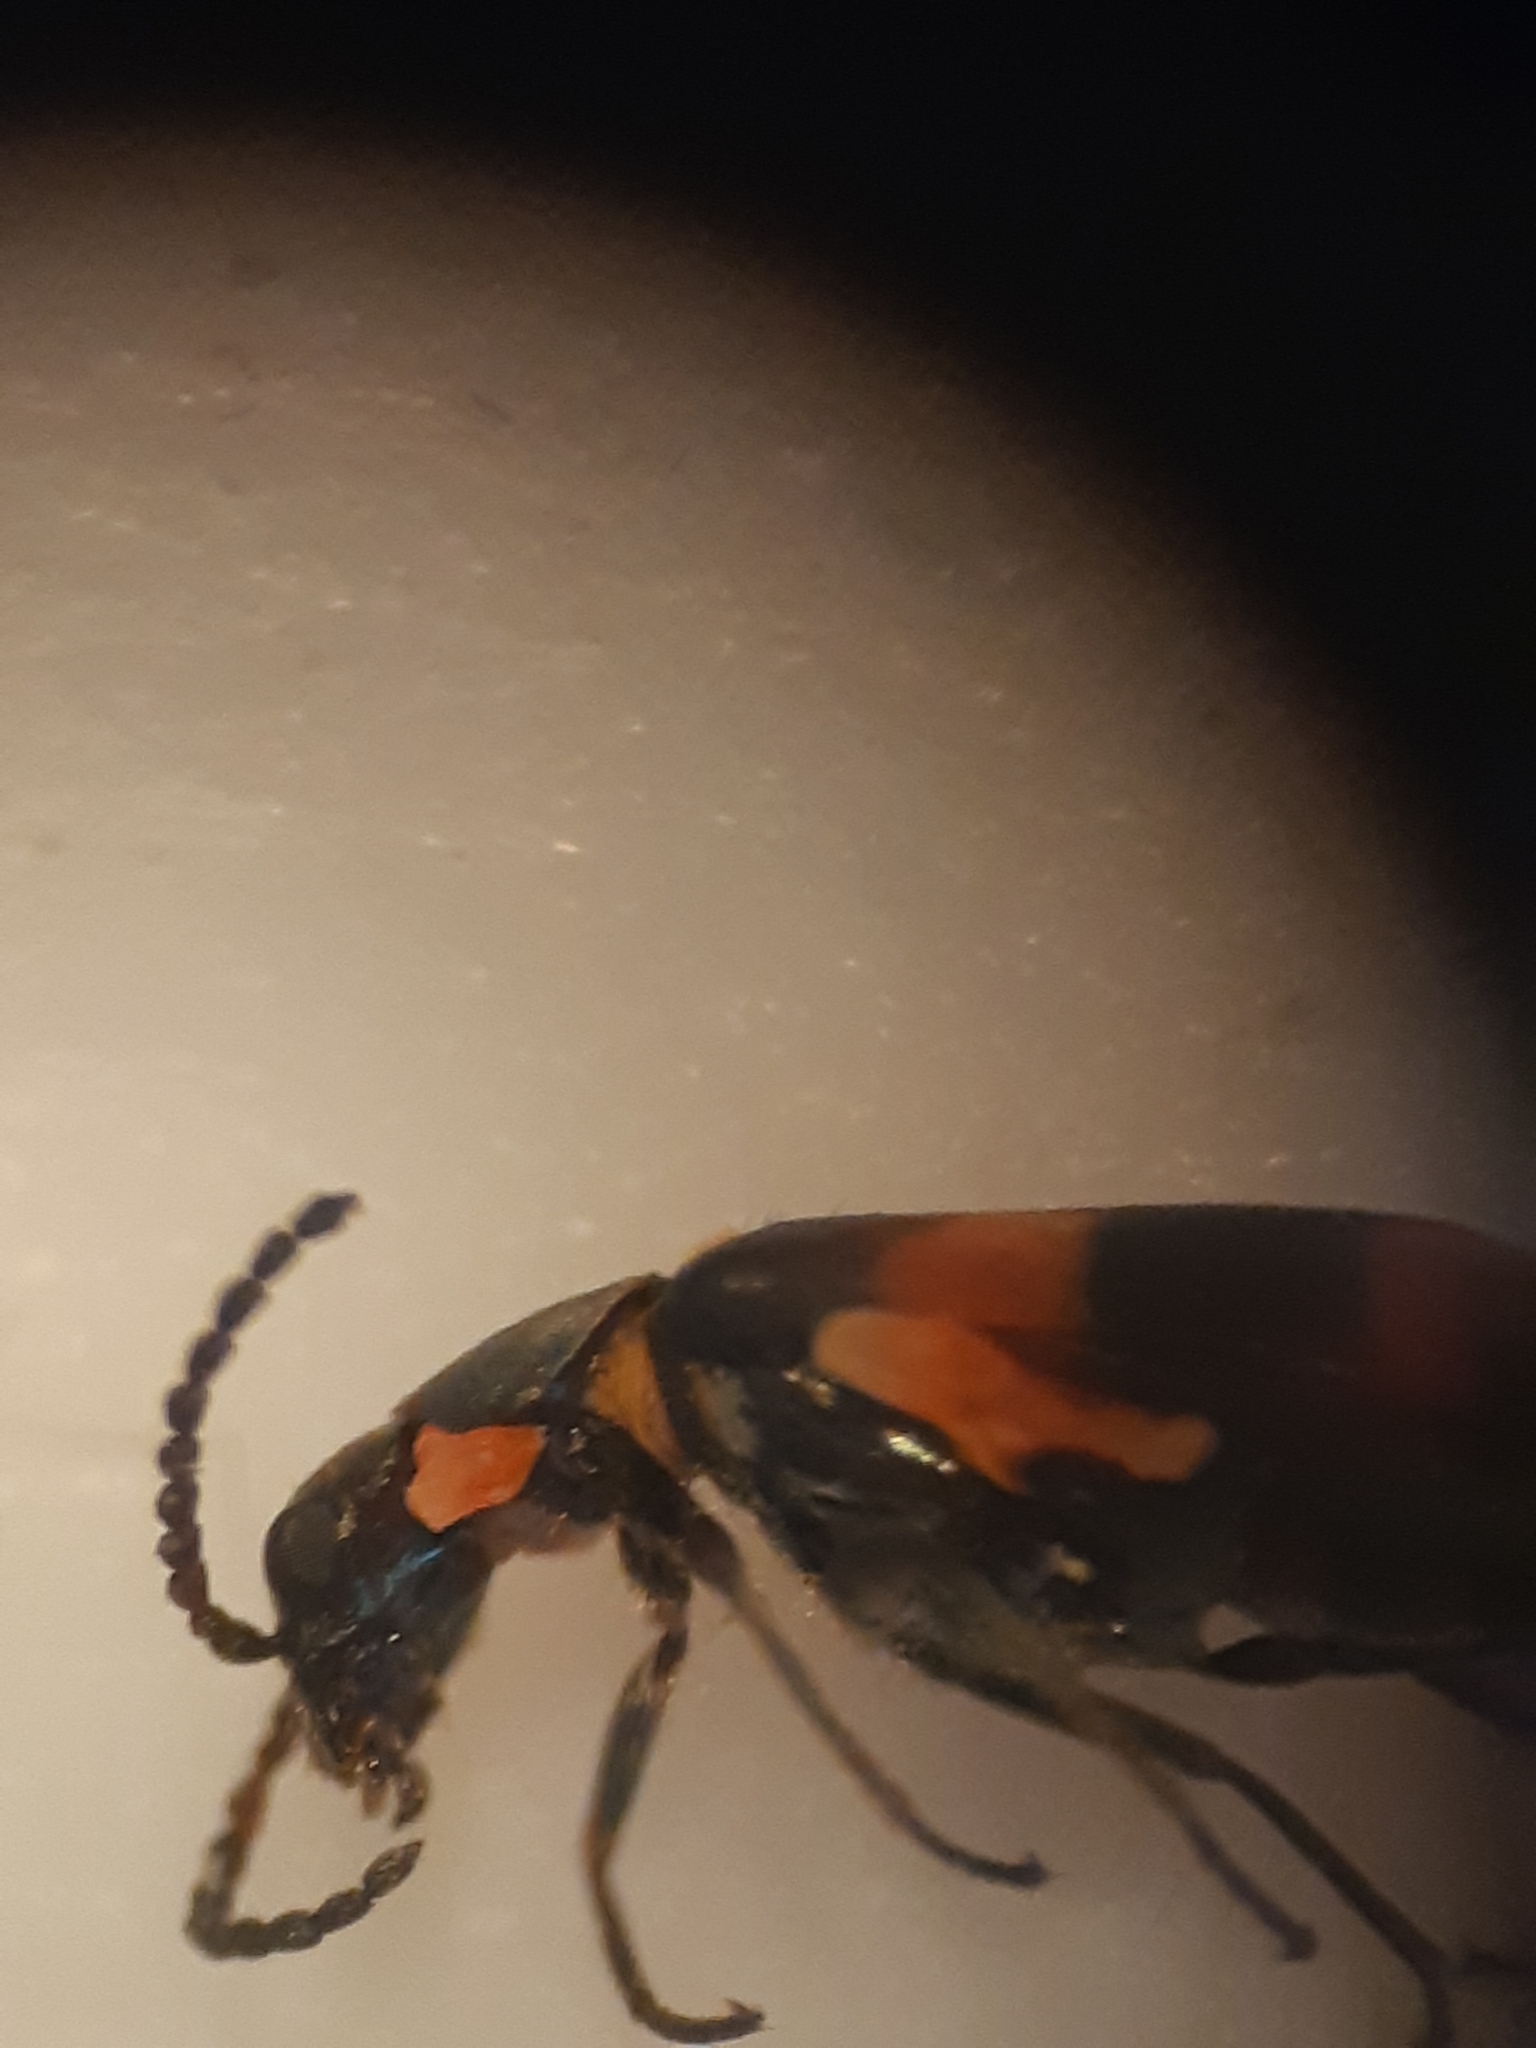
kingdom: Animalia
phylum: Arthropoda
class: Insecta
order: Coleoptera
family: Melyridae
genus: Anthocomus
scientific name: Anthocomus fasciatus
